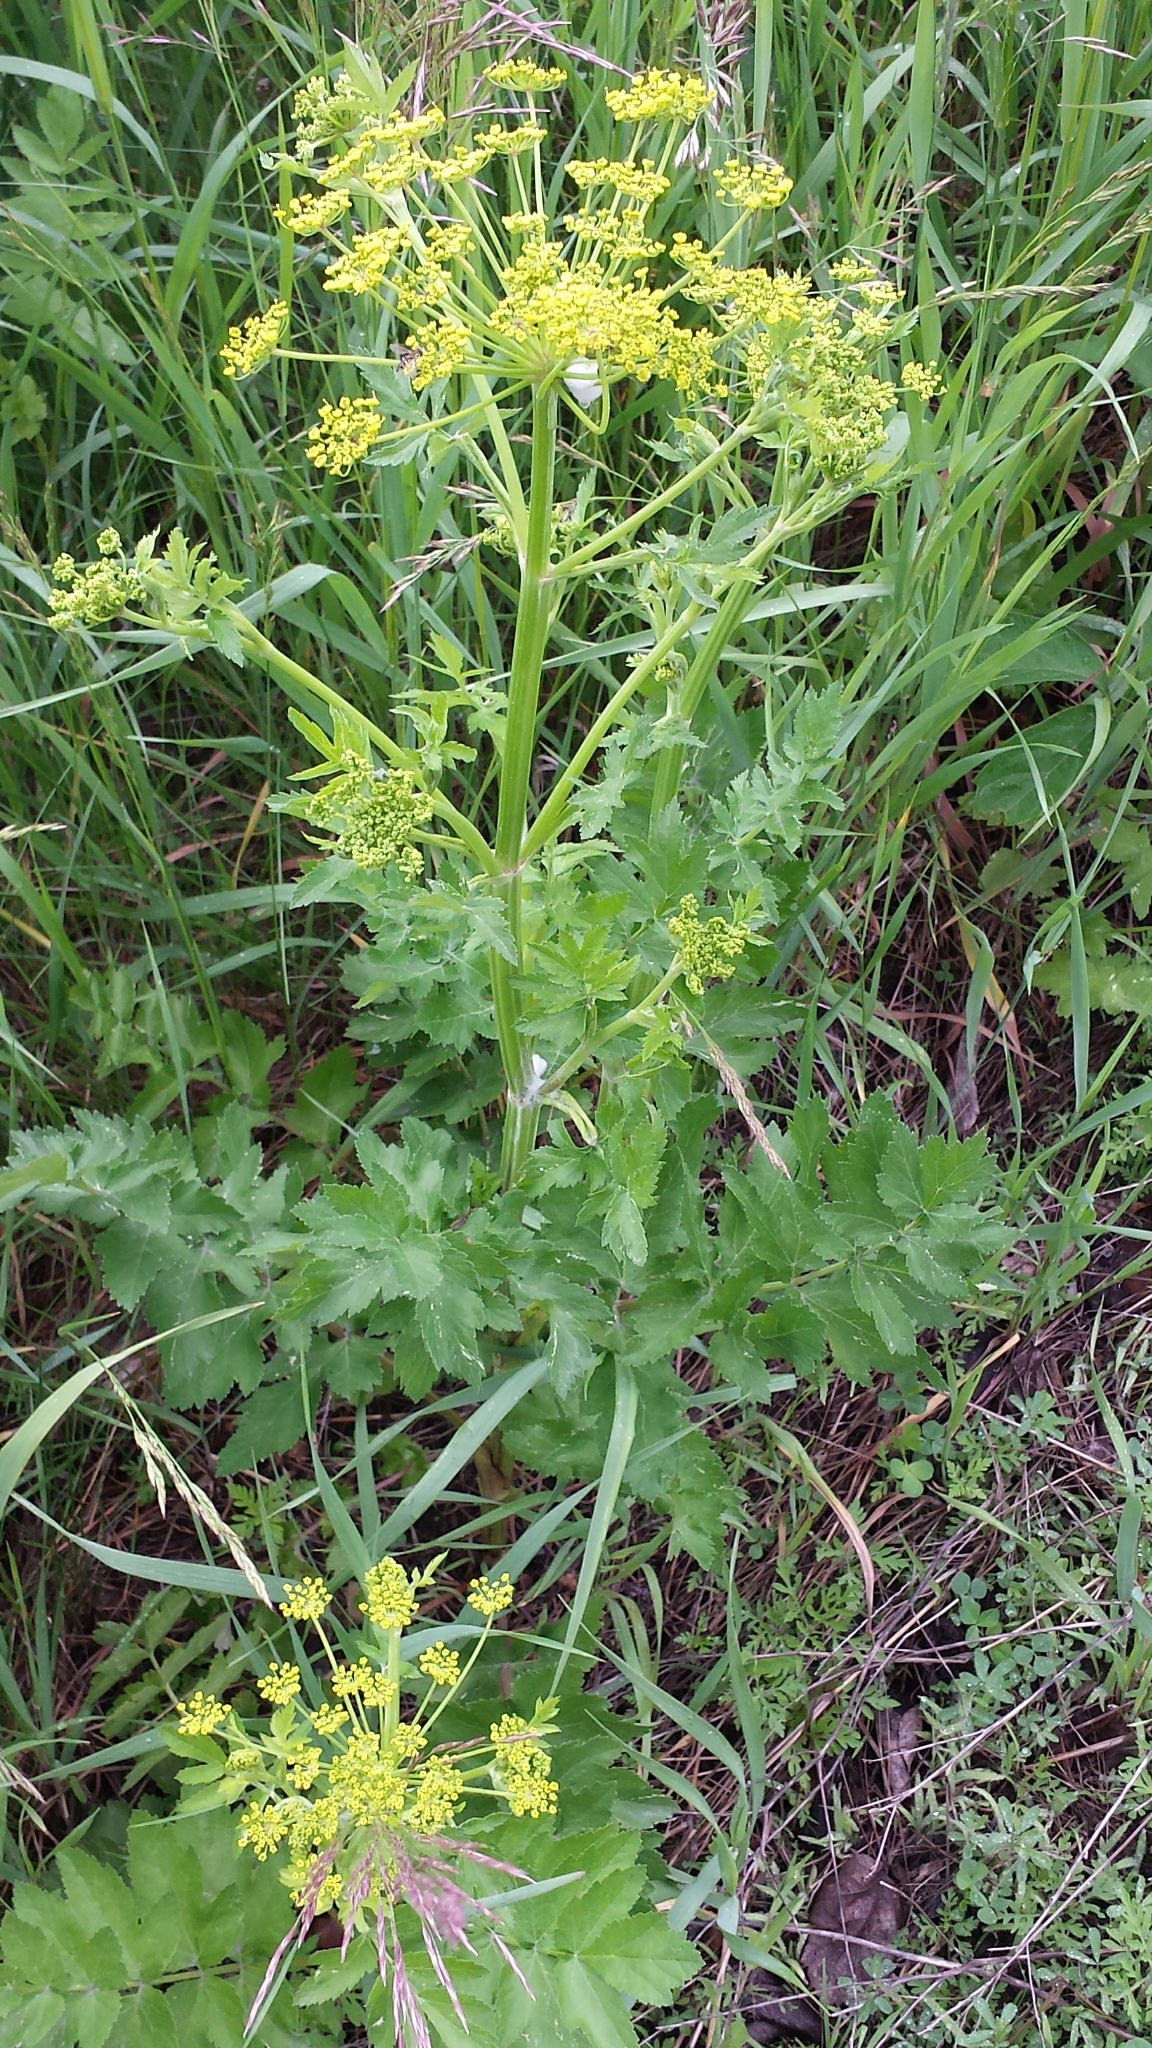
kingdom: Plantae
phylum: Tracheophyta
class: Magnoliopsida
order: Apiales
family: Apiaceae
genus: Pastinaca
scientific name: Pastinaca sativa
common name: Wild parsnip
